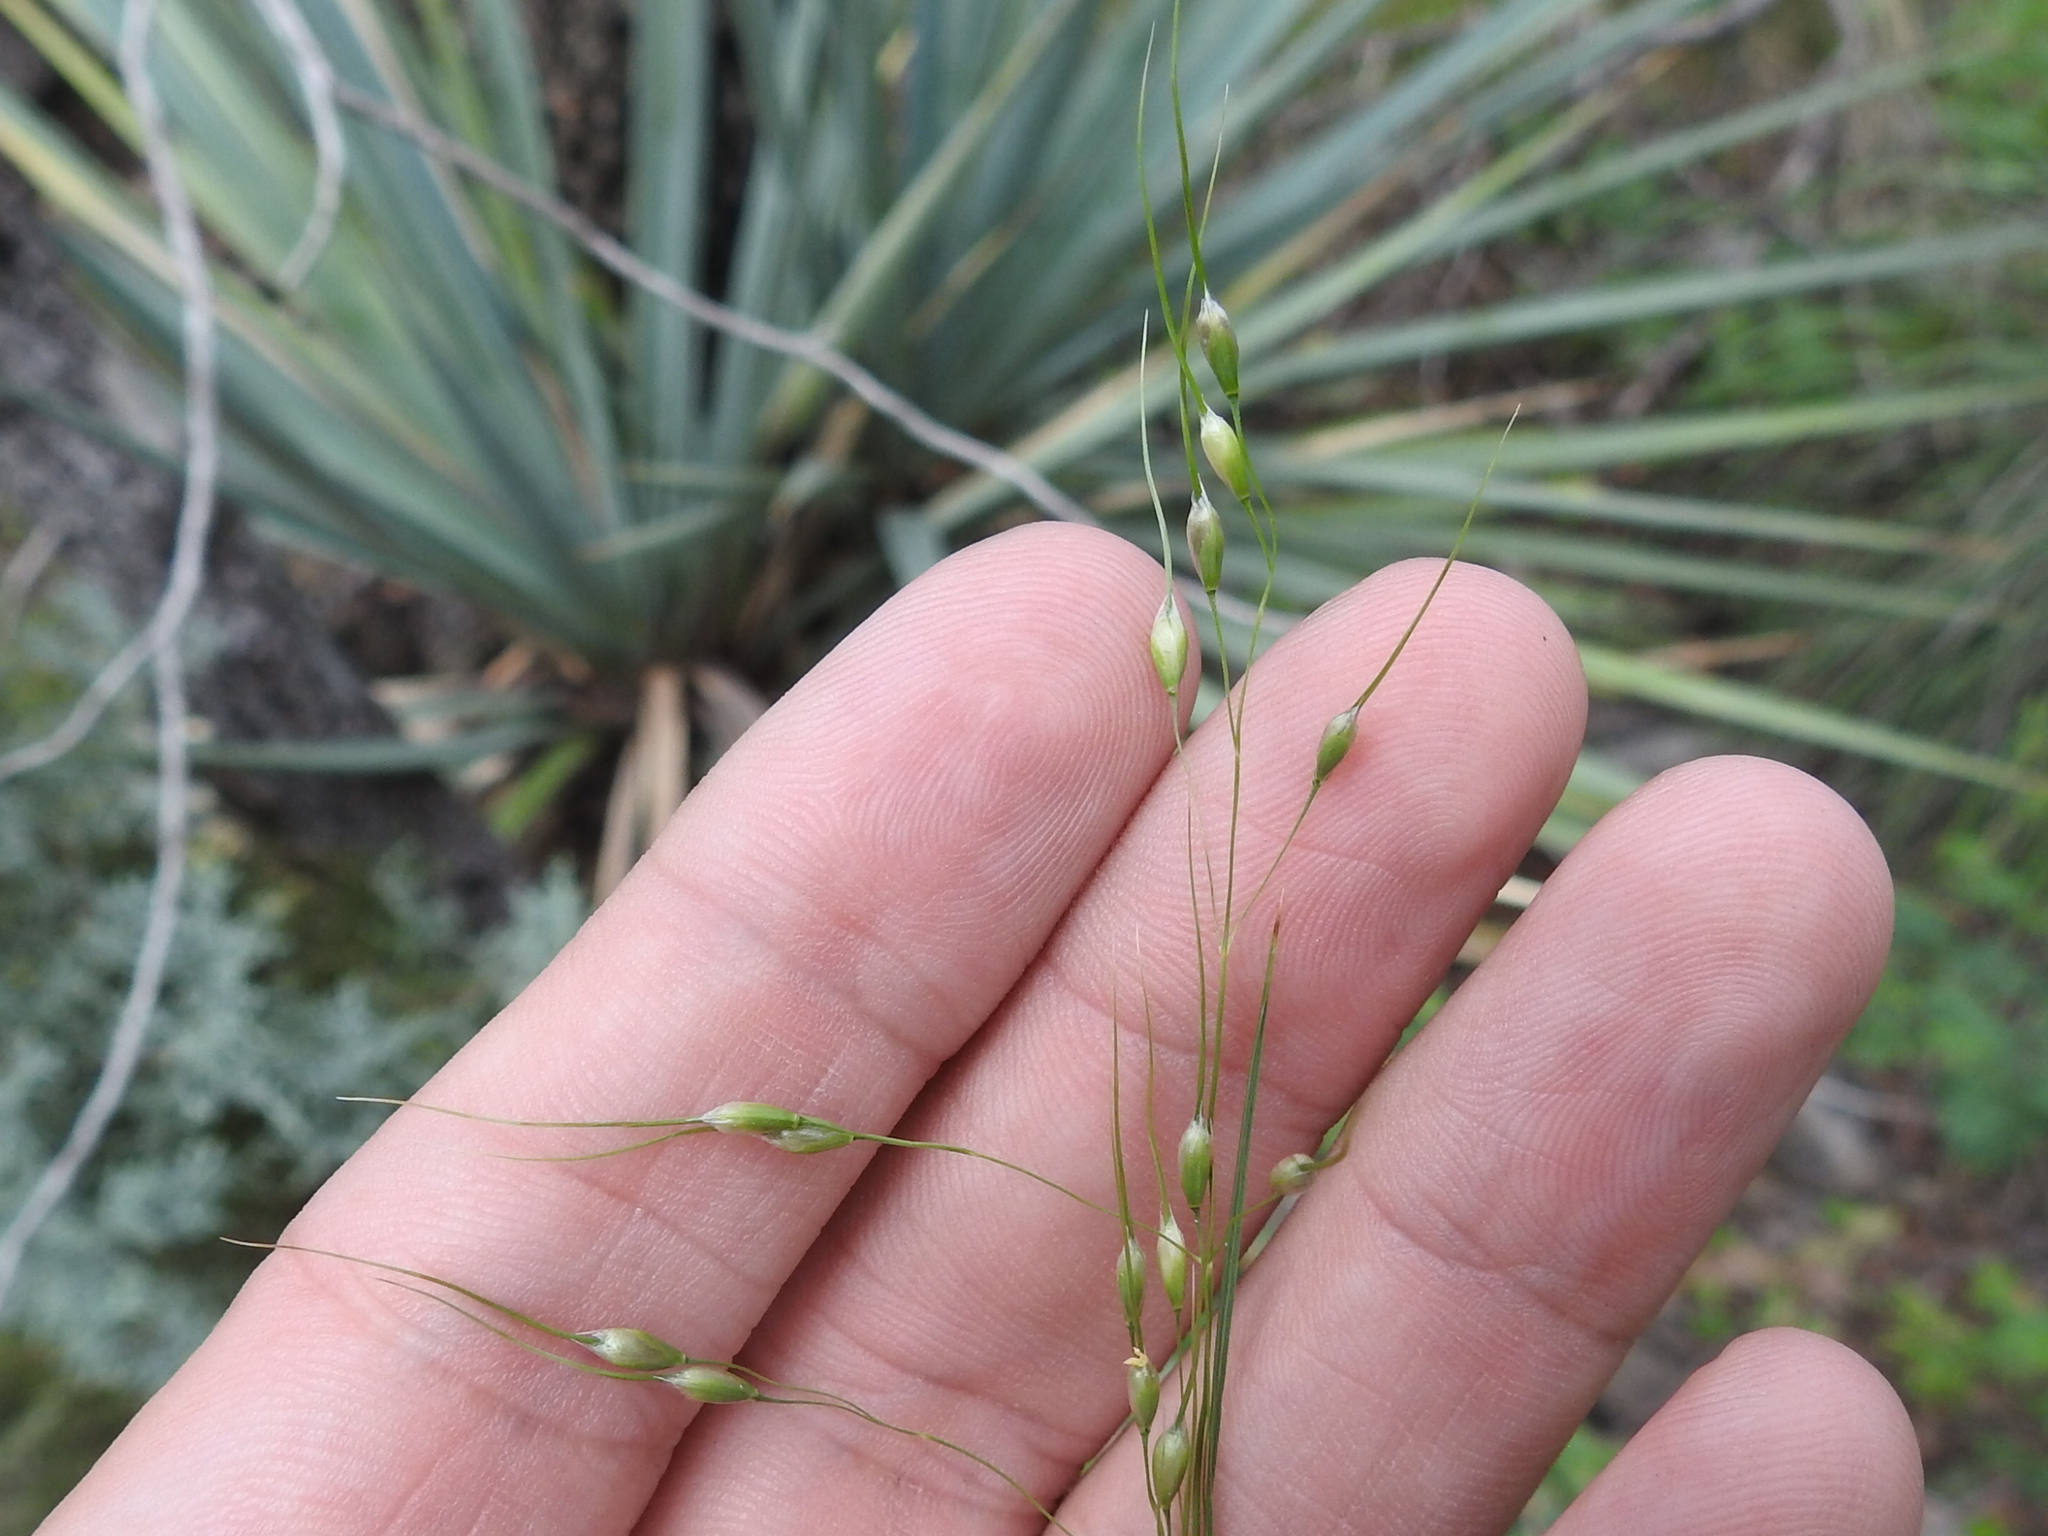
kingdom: Plantae
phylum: Tracheophyta
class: Liliopsida
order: Poales
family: Poaceae
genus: Piptochaetium
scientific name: Piptochaetium fimbriatum
